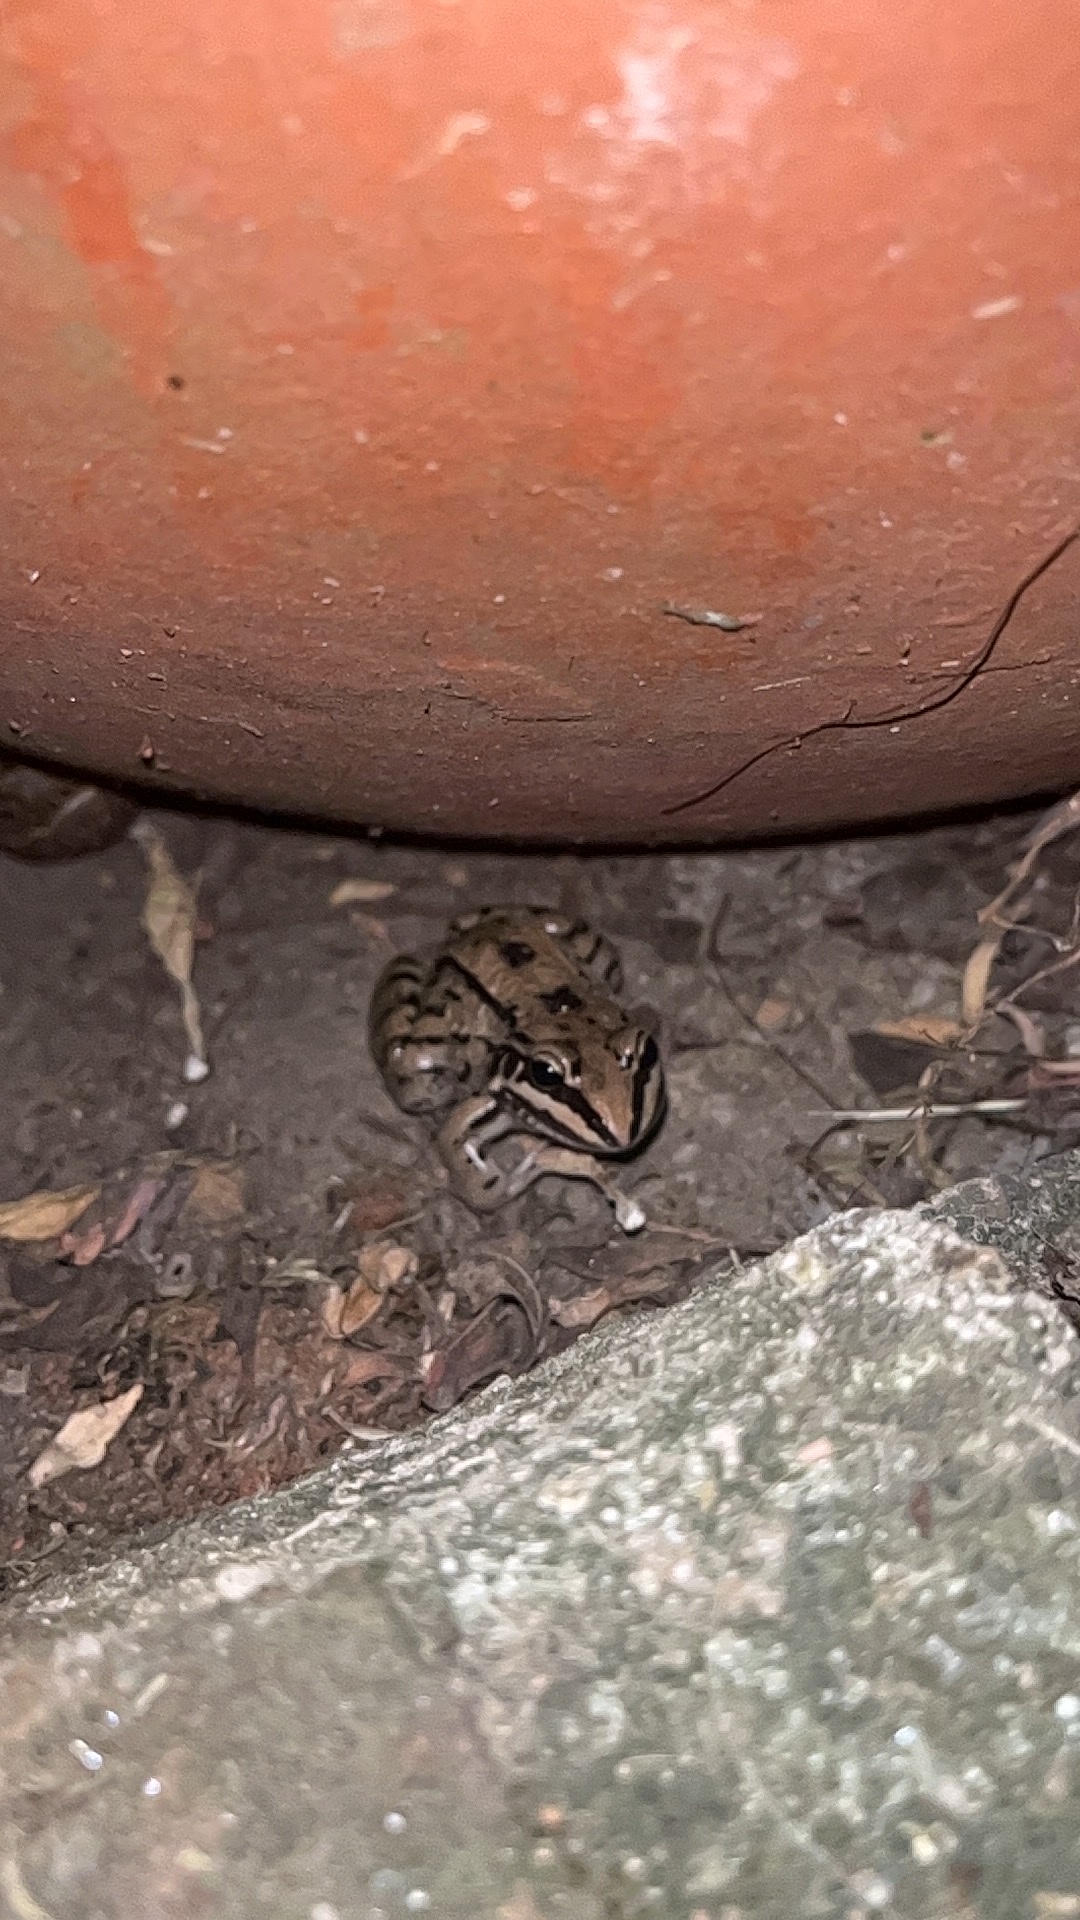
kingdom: Animalia
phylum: Chordata
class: Amphibia
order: Anura
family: Leptodactylidae
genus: Leptodactylus
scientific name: Leptodactylus mystacinus
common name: Moustached frog
